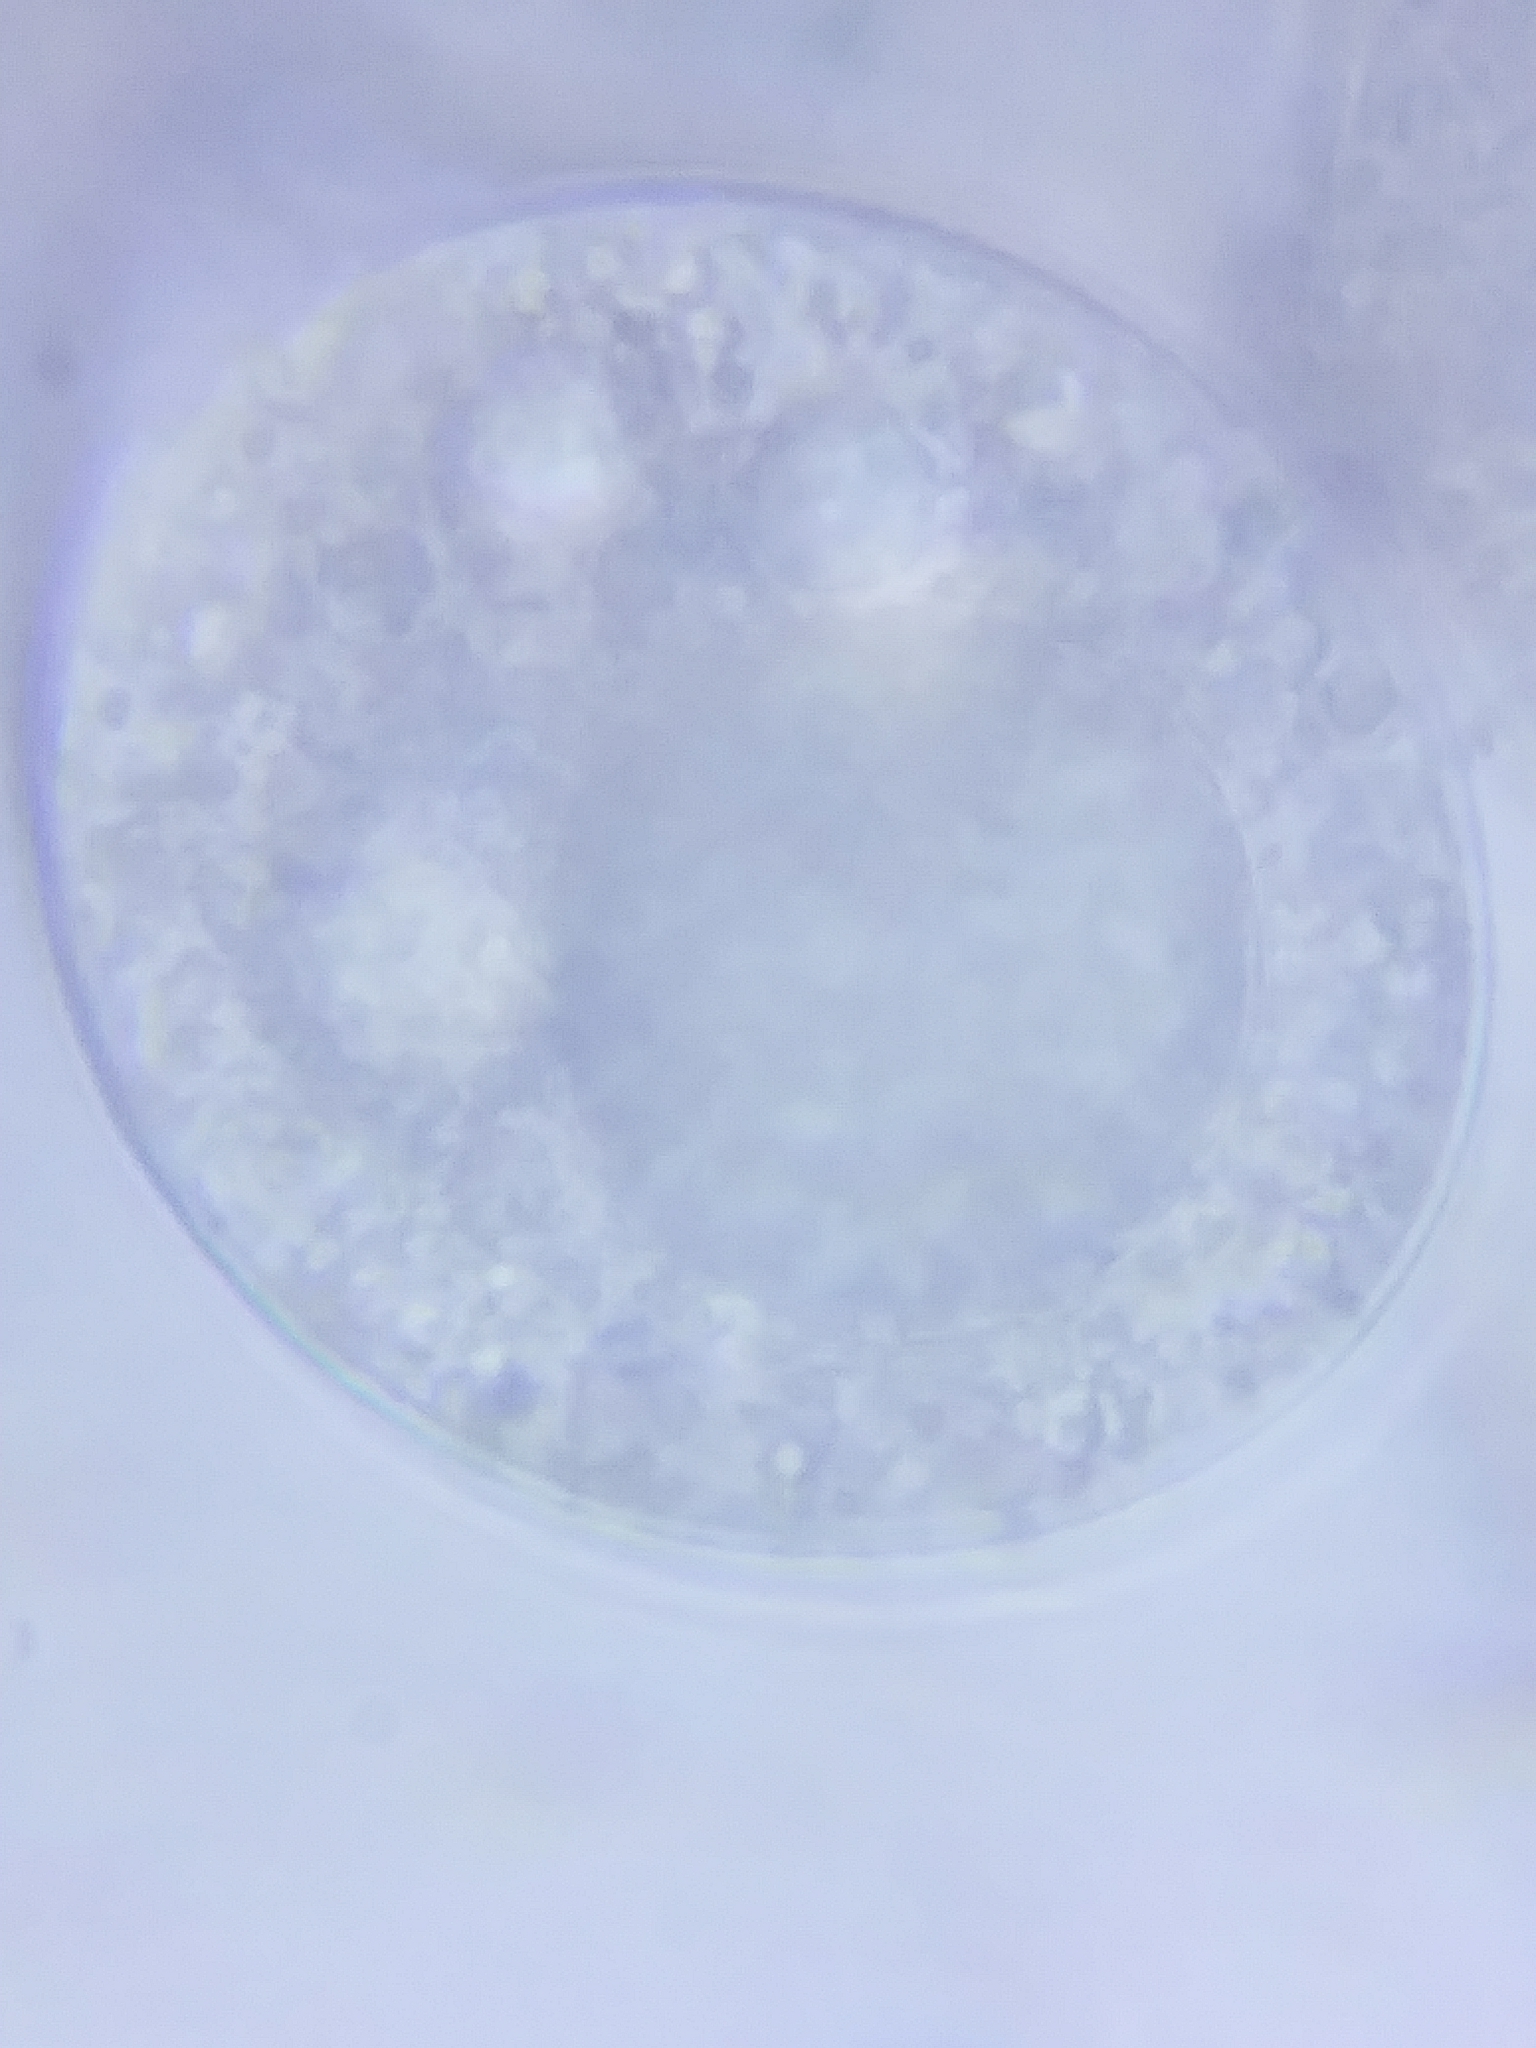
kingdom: Fungi
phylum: Entomophthoromycota
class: Entomophthoromycetes
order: Entomophthorales
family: Entomophthoraceae
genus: Arthrophaga
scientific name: Arthrophaga myriapodina
